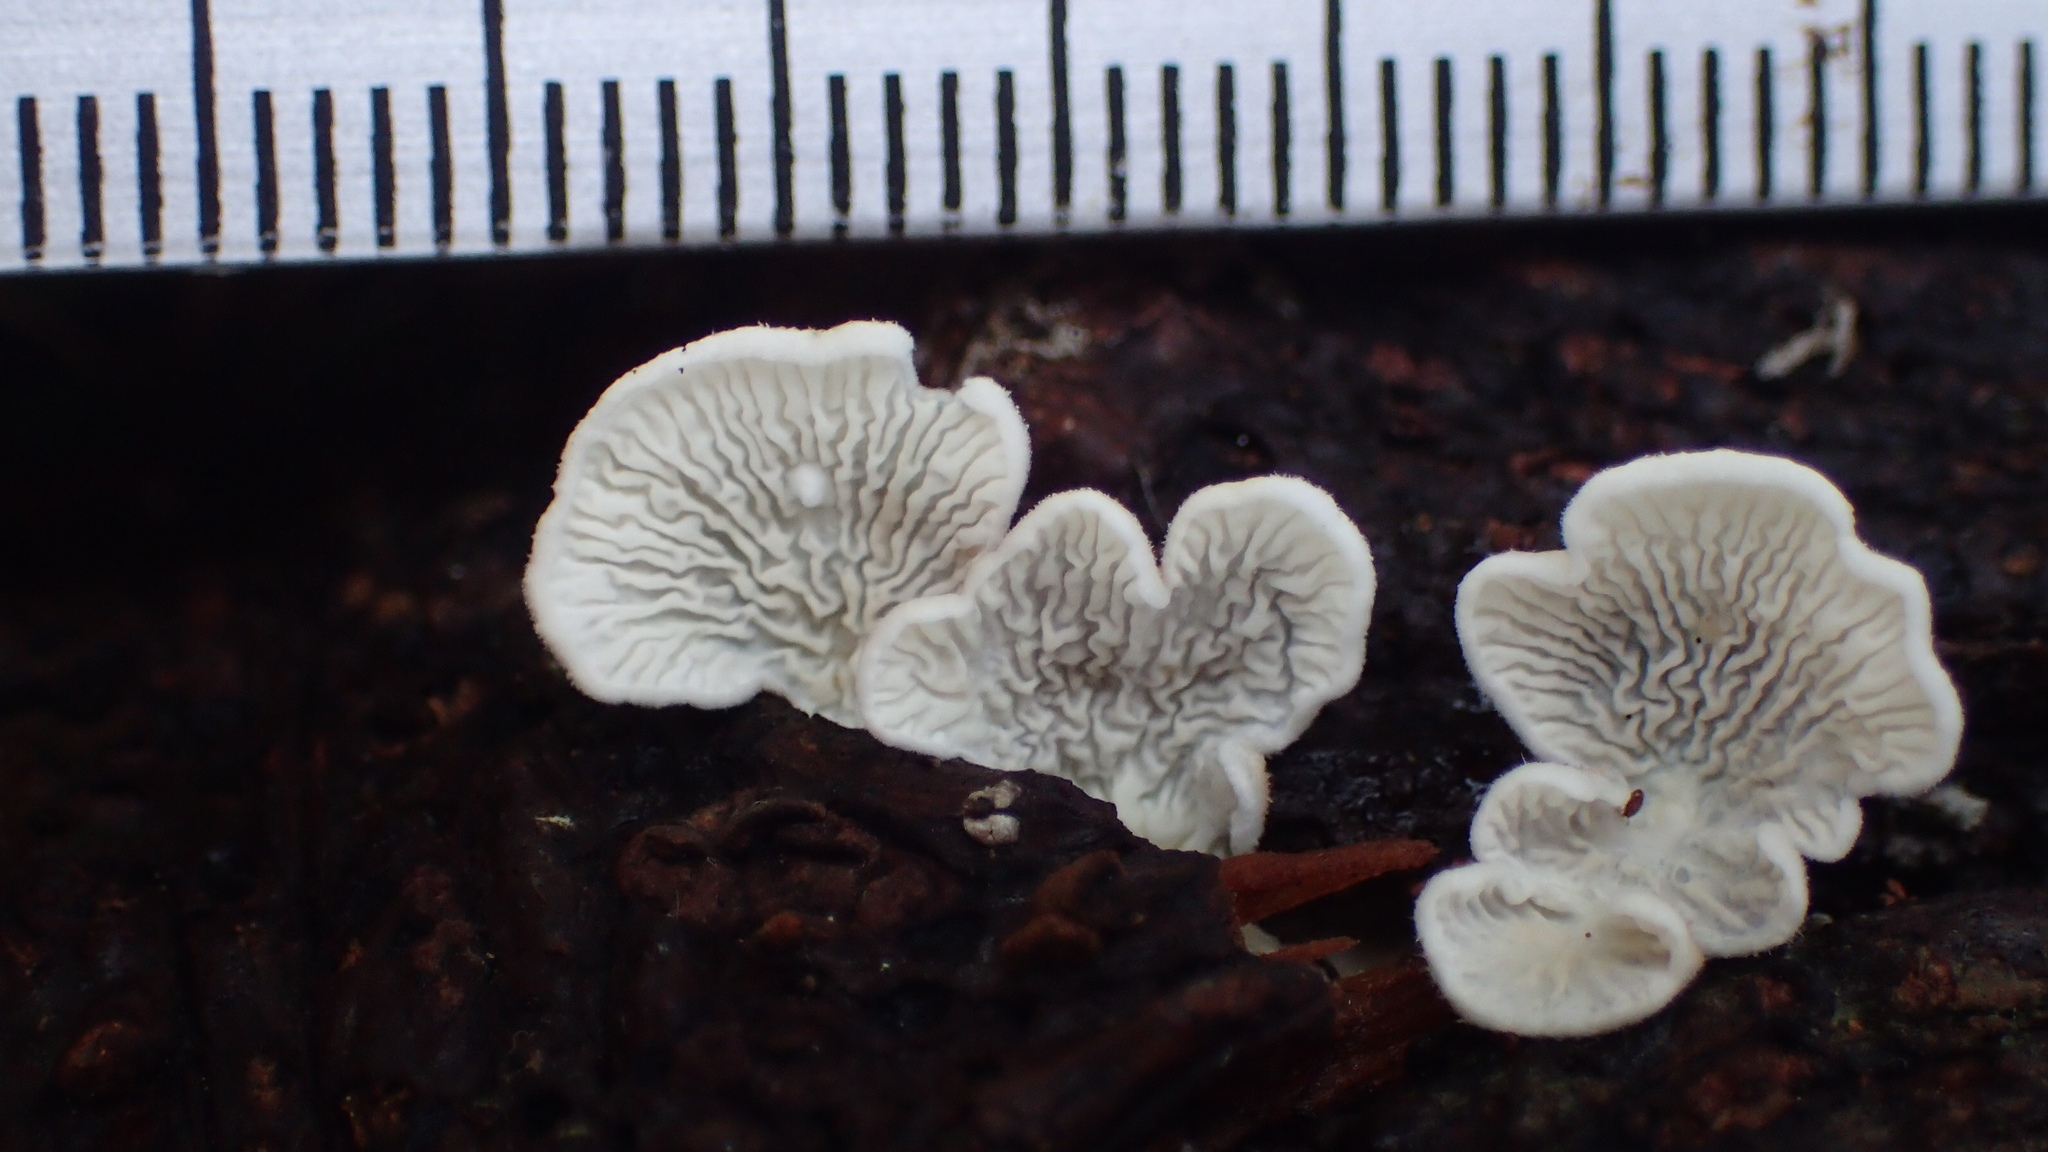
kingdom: Fungi
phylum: Basidiomycota
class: Agaricomycetes
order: Amylocorticiales
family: Amylocorticiaceae
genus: Plicaturopsis
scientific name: Plicaturopsis crispa
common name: Crimped gill
